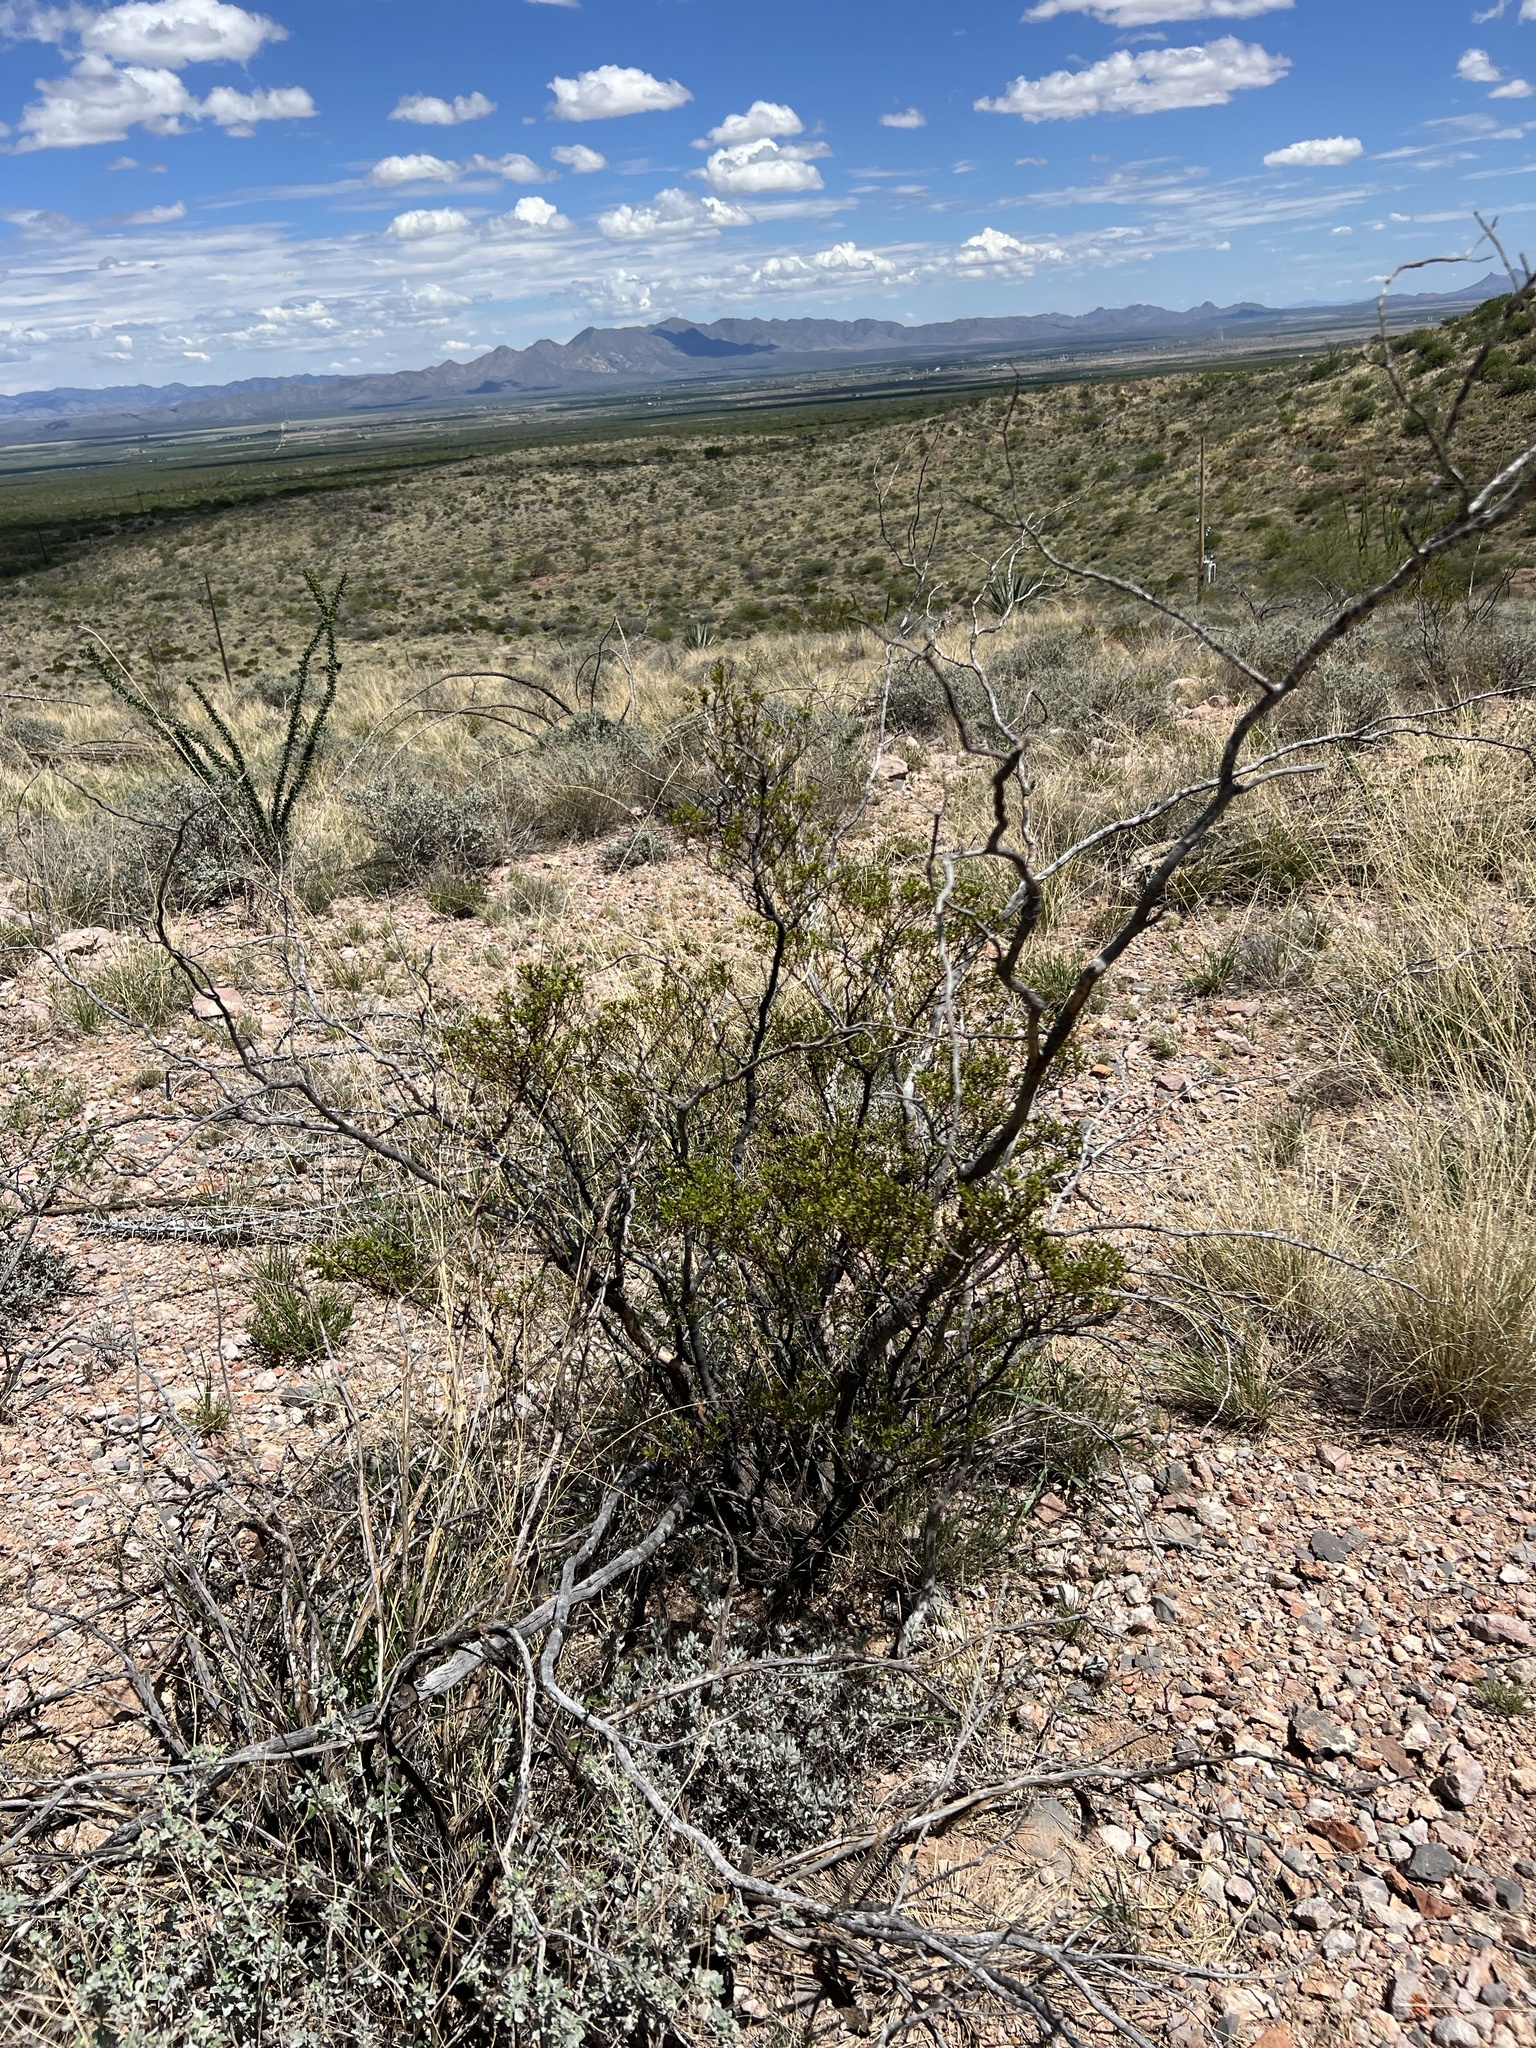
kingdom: Plantae
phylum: Tracheophyta
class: Magnoliopsida
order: Zygophyllales
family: Zygophyllaceae
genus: Larrea
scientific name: Larrea tridentata
